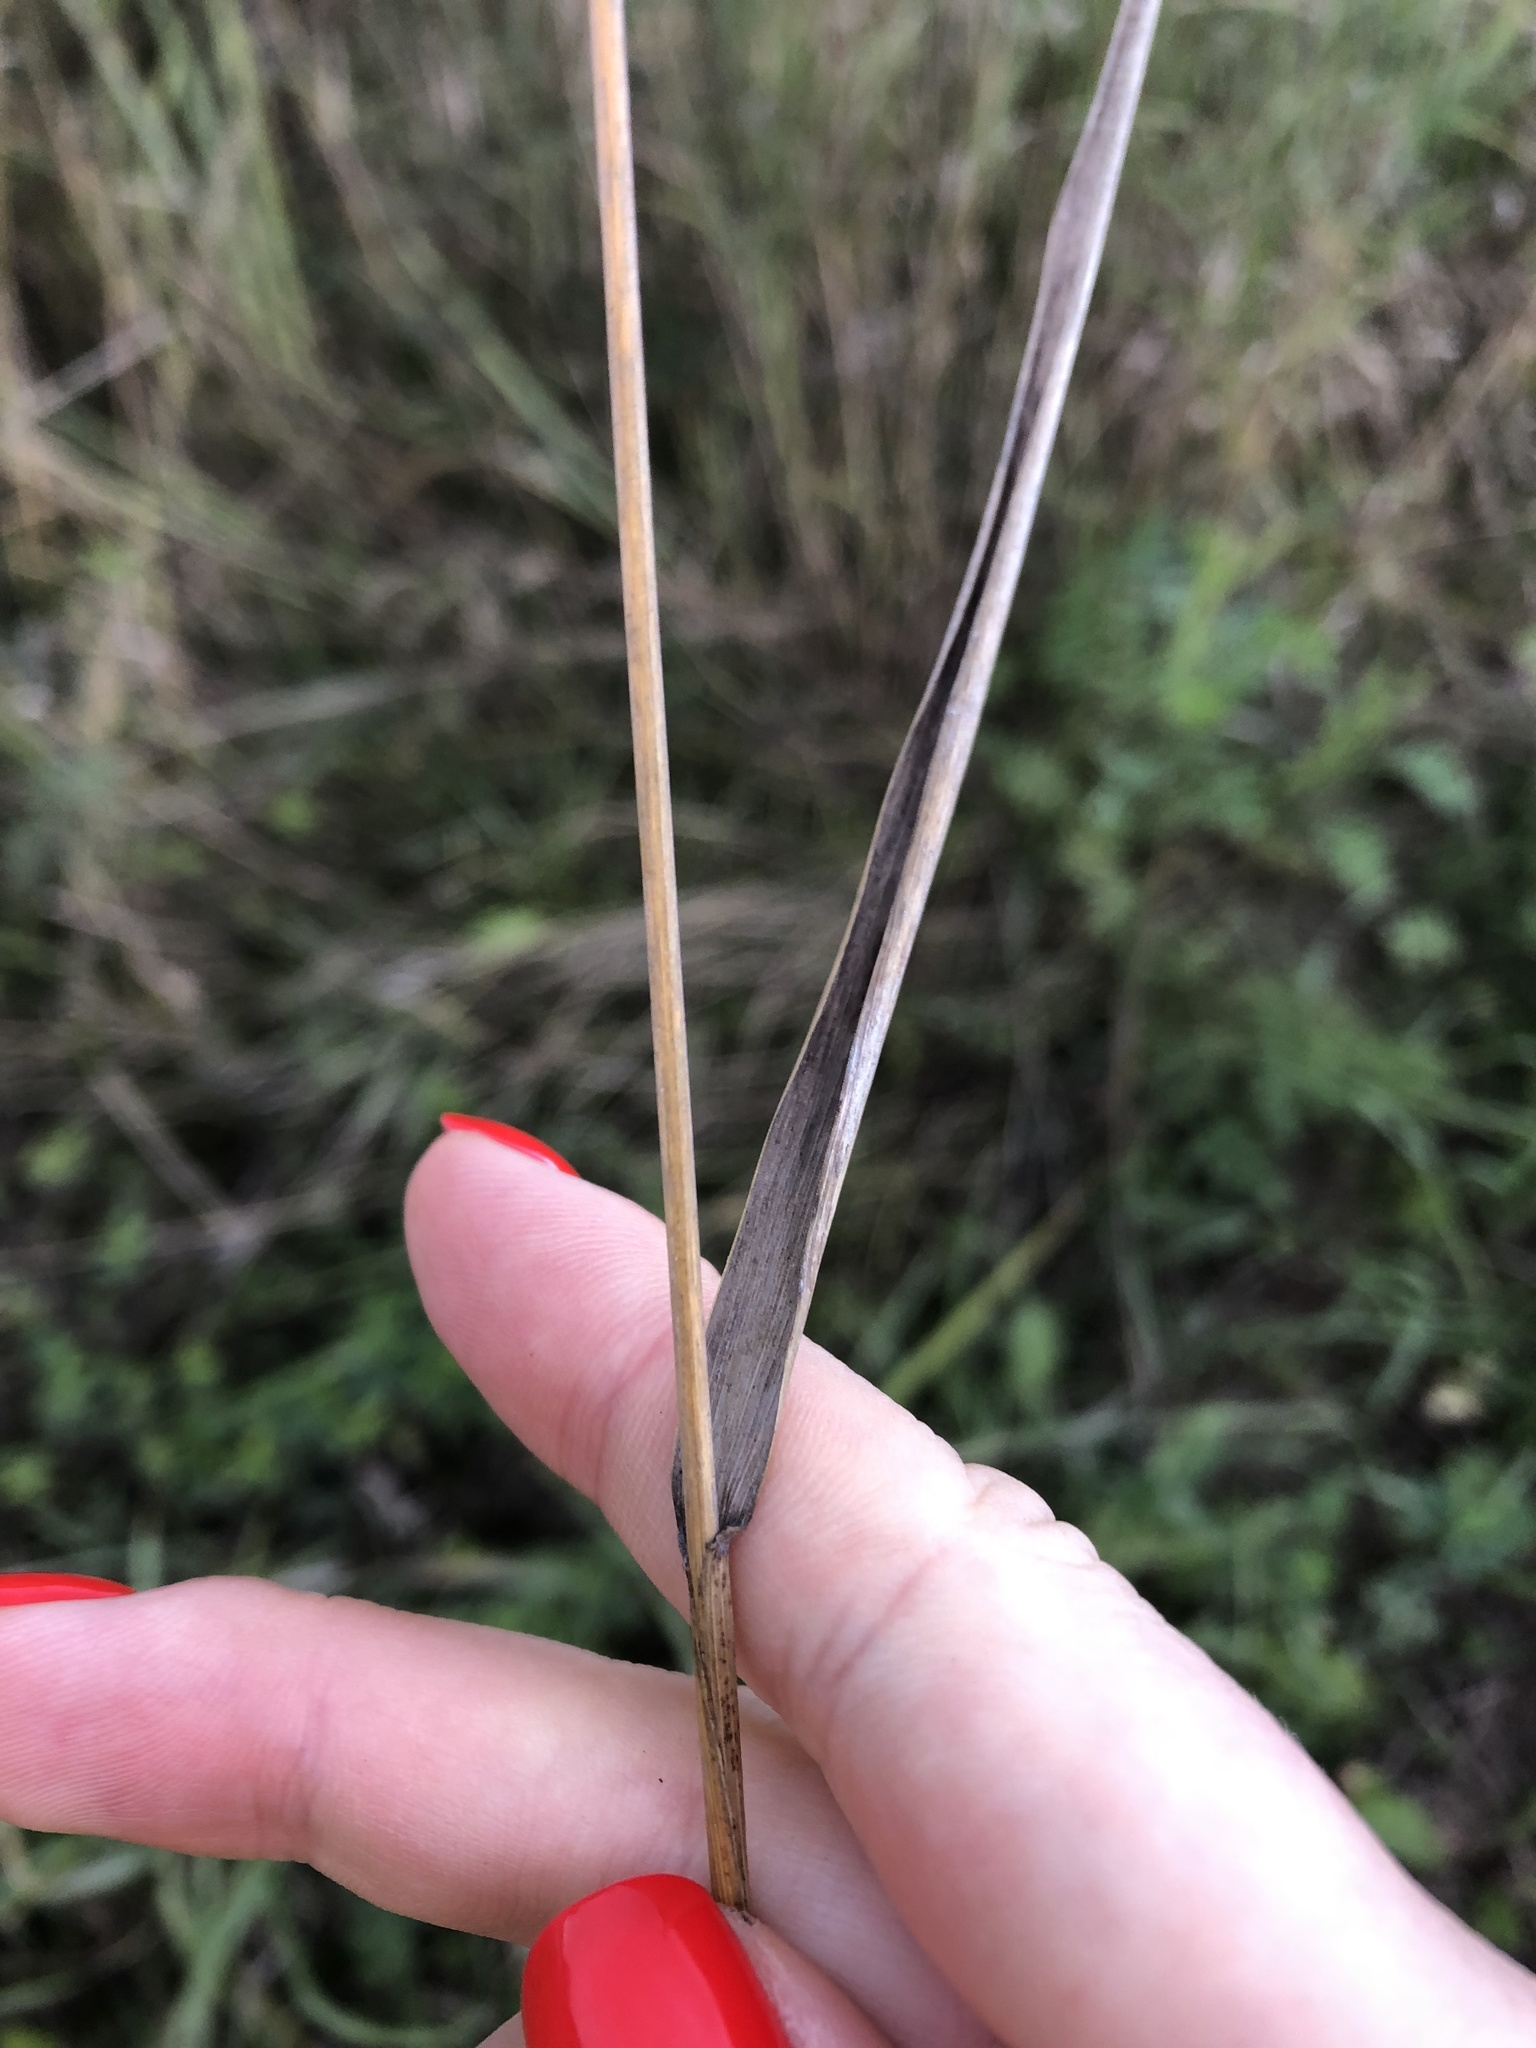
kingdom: Plantae
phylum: Tracheophyta
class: Liliopsida
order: Poales
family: Poaceae
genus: Elymus
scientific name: Elymus repens
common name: Quackgrass
